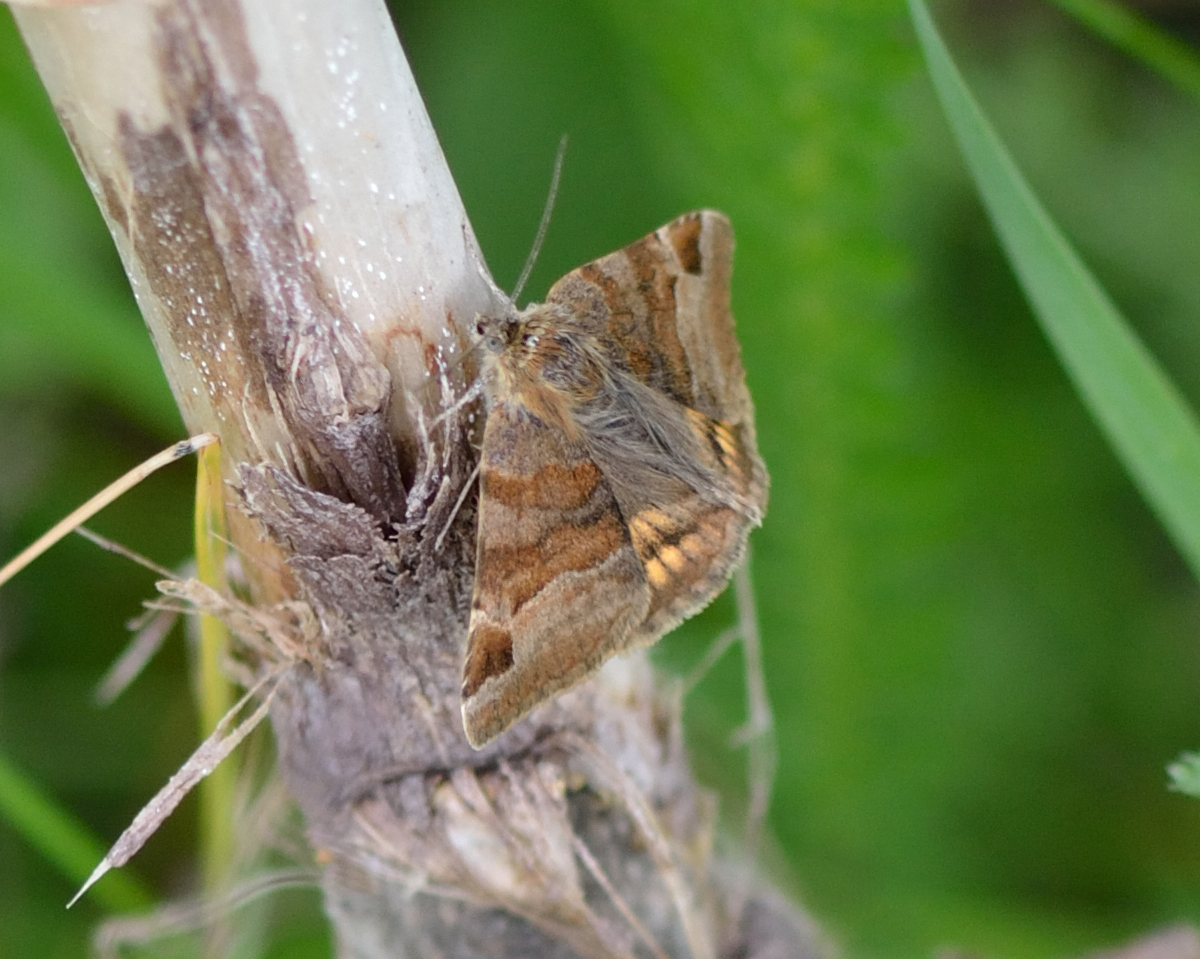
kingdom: Animalia
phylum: Arthropoda
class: Insecta
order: Lepidoptera
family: Erebidae
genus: Euclidia
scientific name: Euclidia glyphica
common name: Burnet companion
